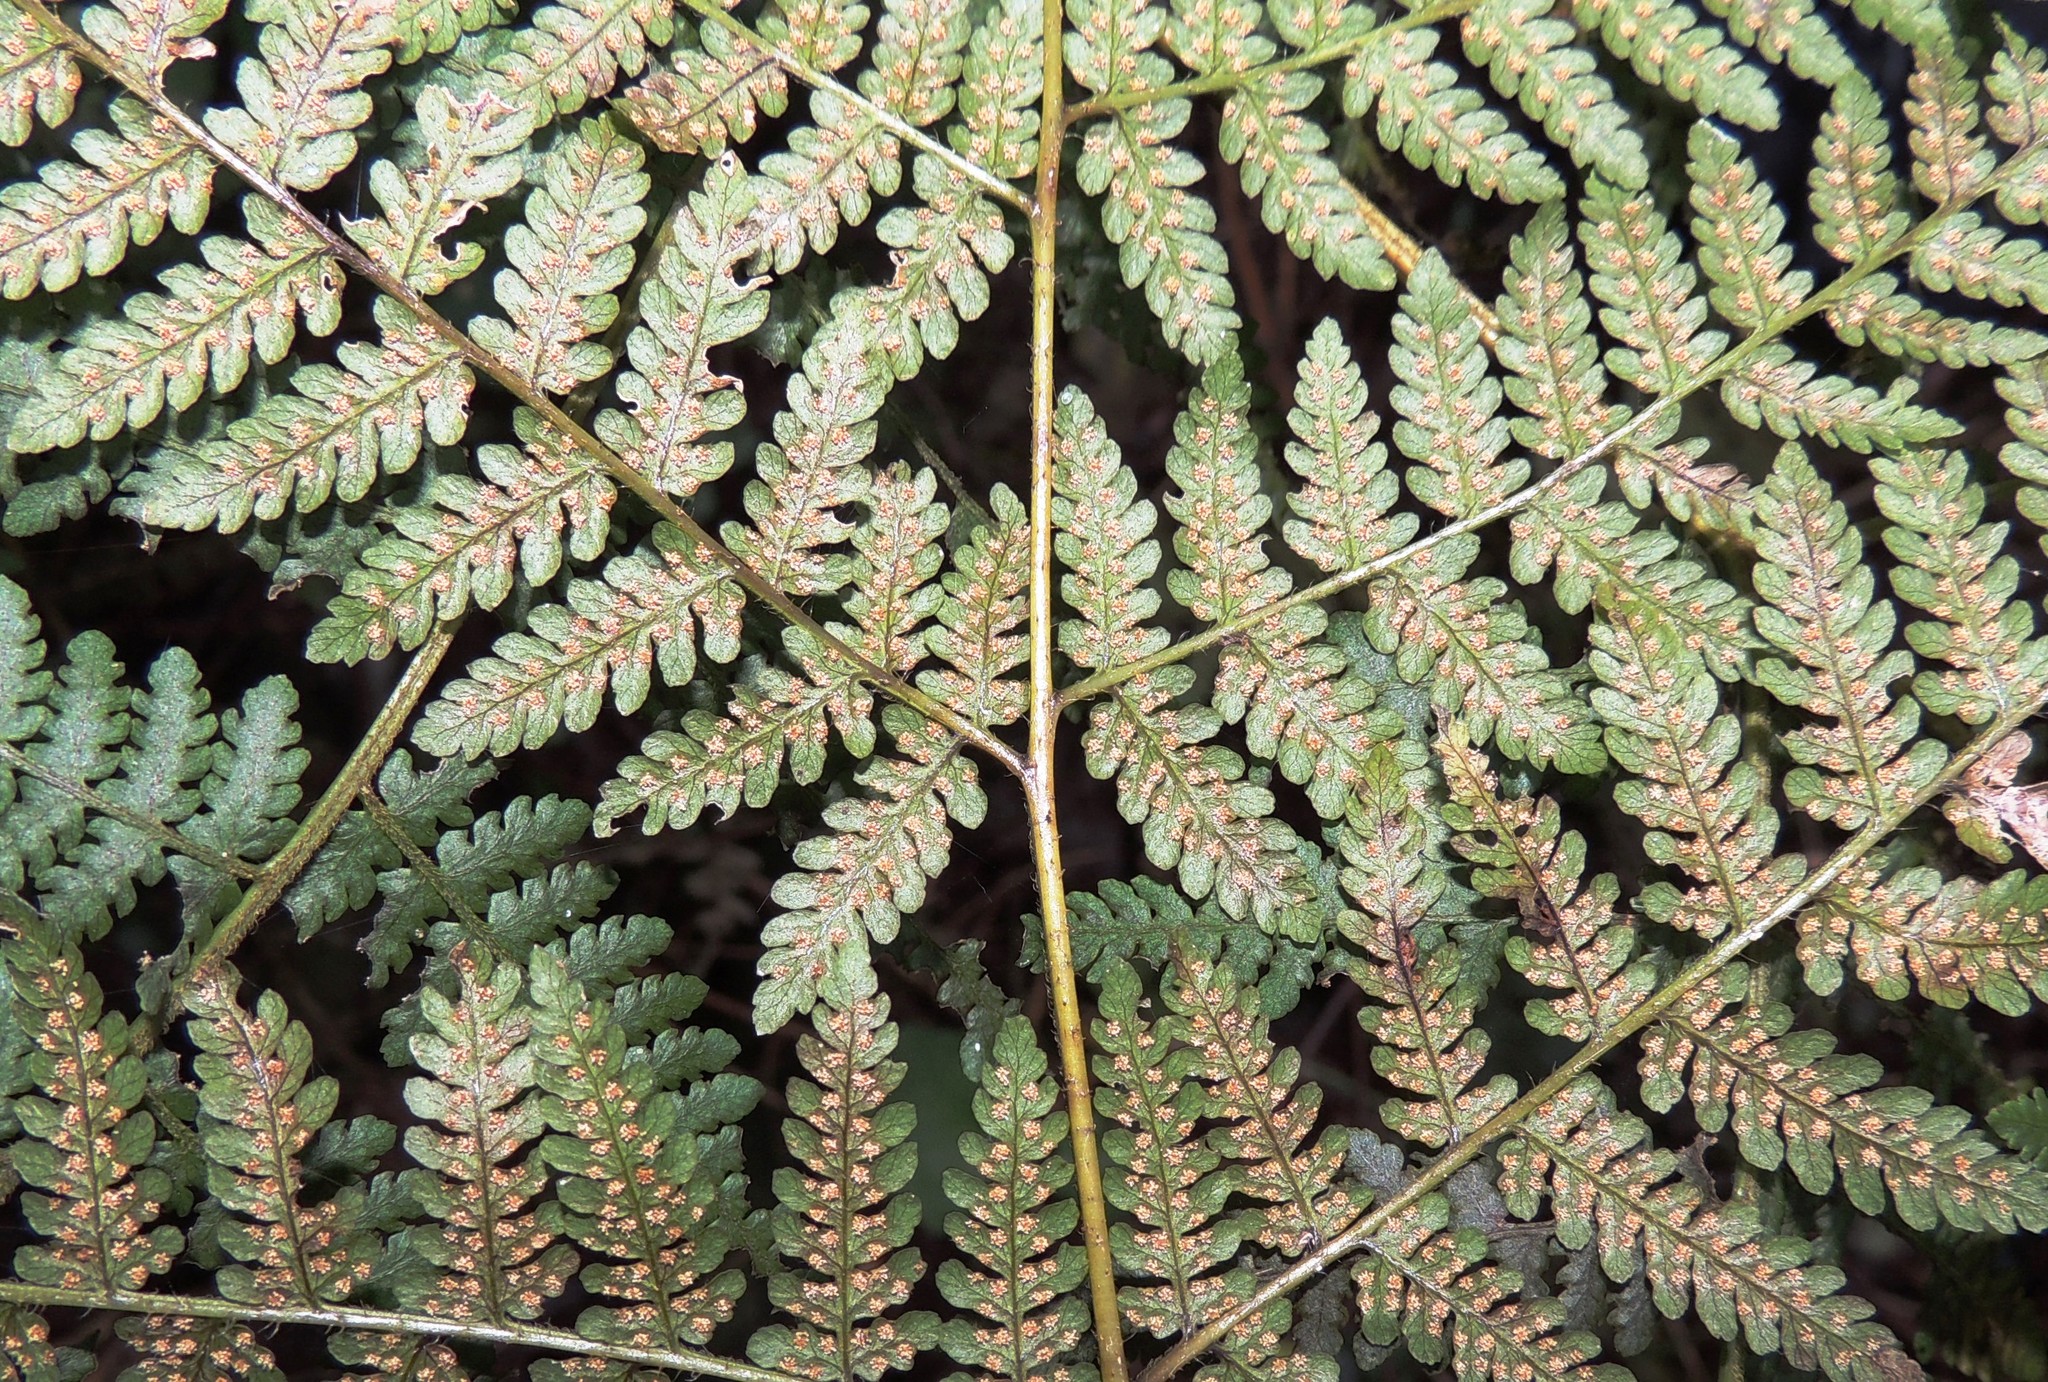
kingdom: Plantae
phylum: Tracheophyta
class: Polypodiopsida
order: Polypodiales
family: Dennstaedtiaceae
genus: Hypolepis
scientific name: Hypolepis ambigua
